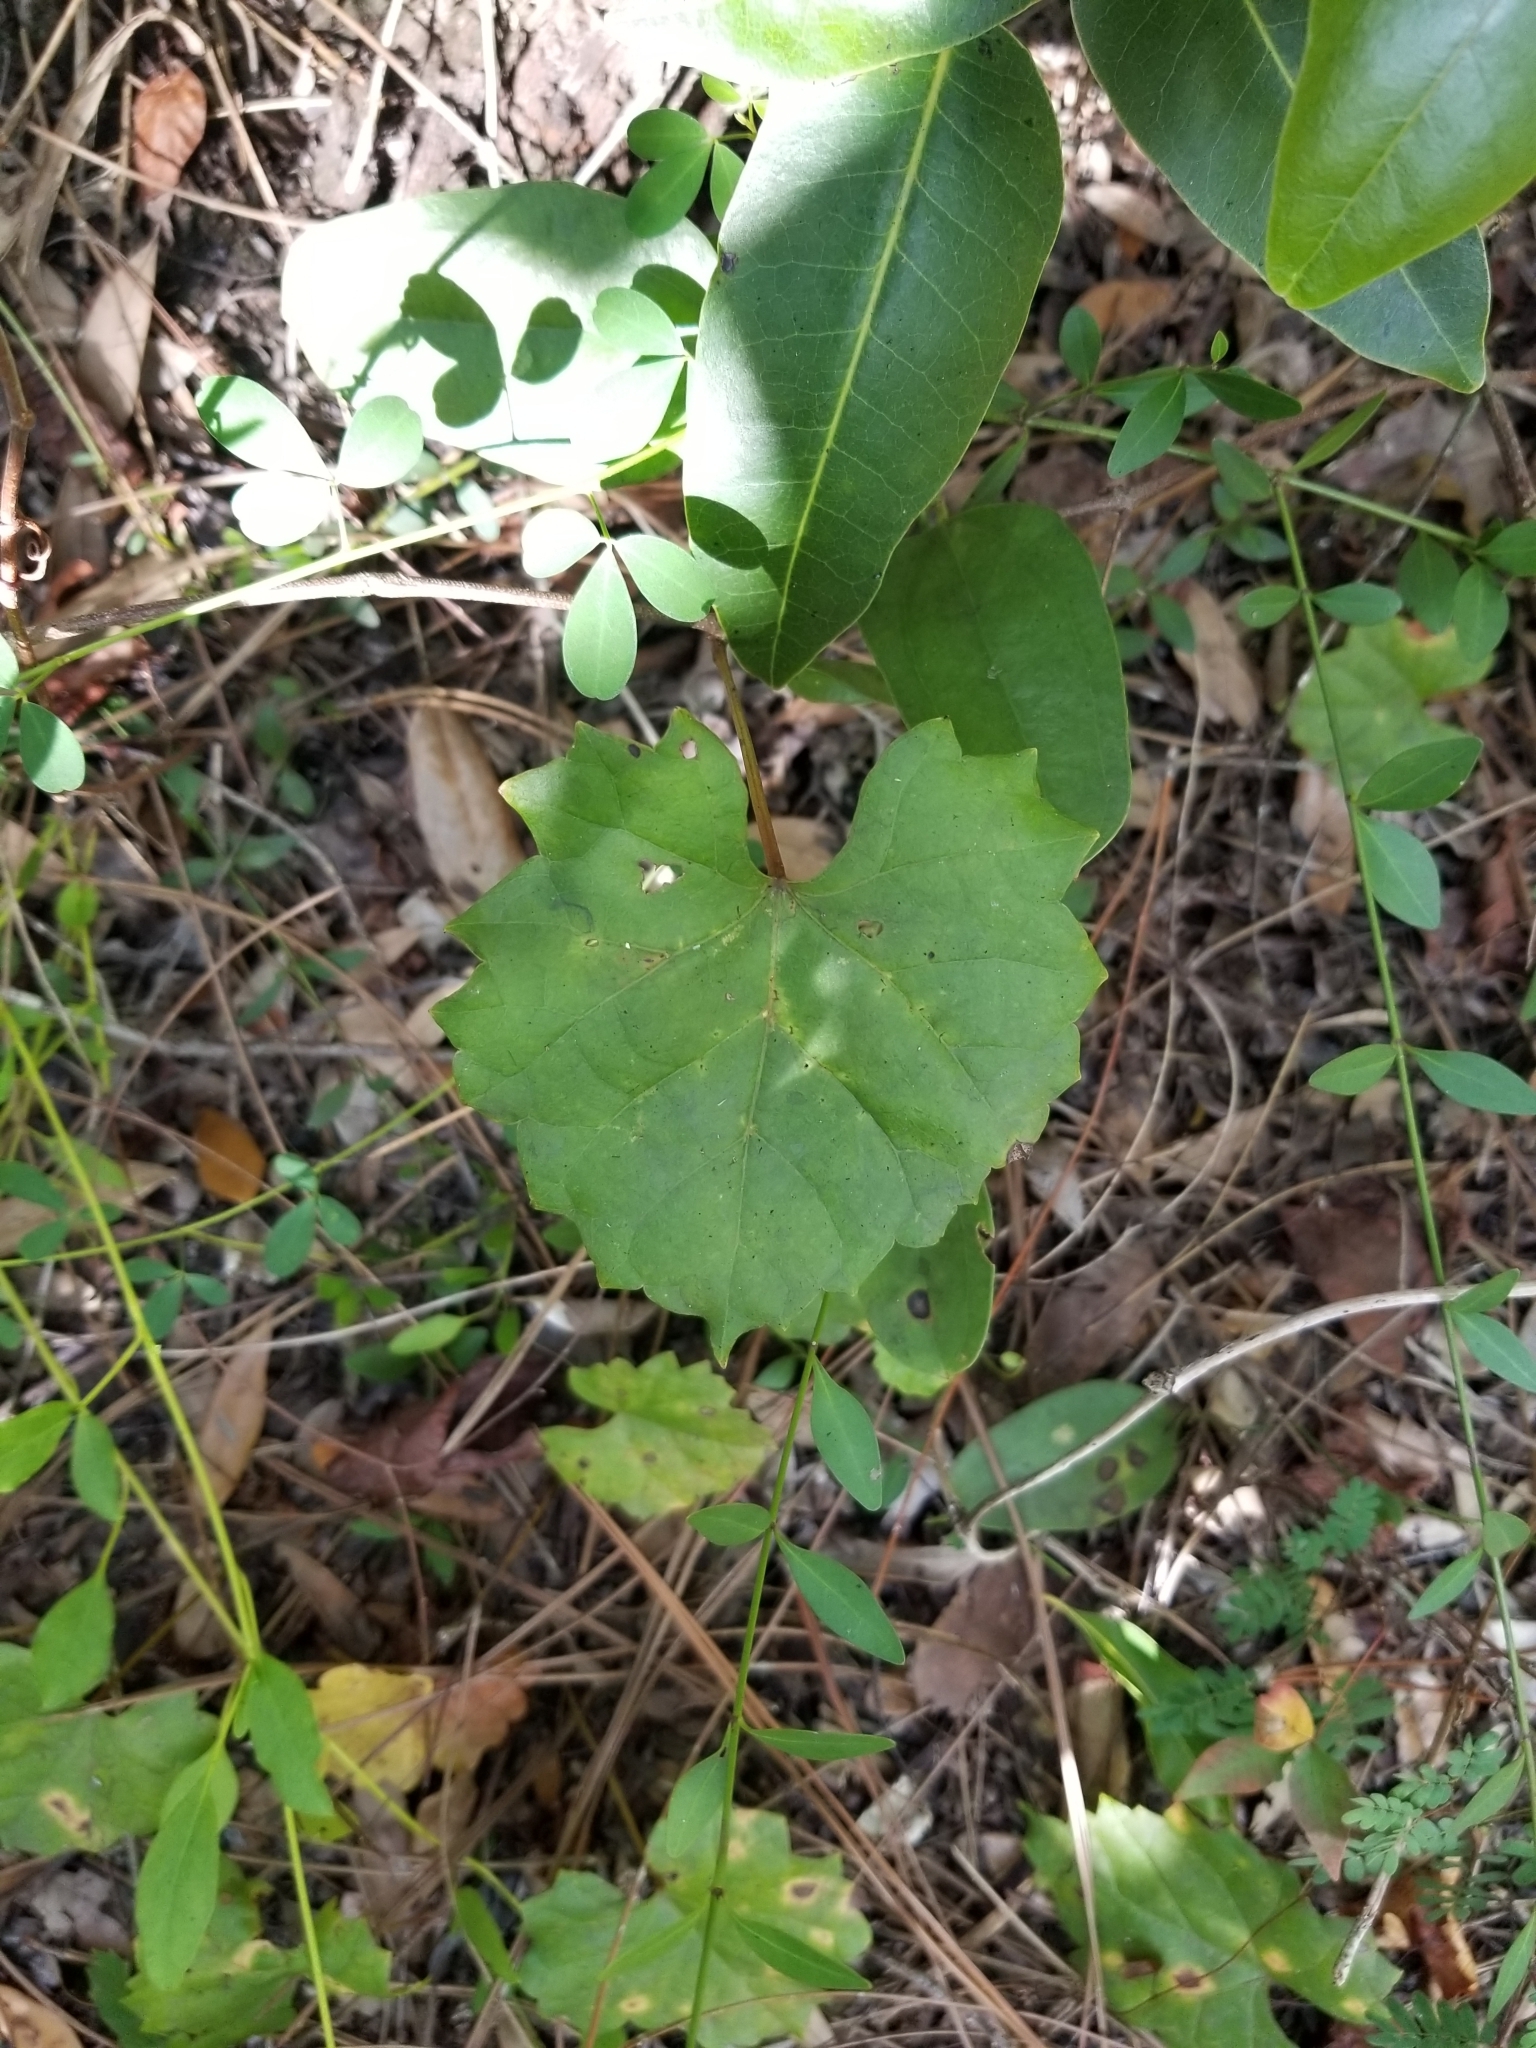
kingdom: Plantae
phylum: Tracheophyta
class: Magnoliopsida
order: Vitales
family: Vitaceae
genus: Vitis
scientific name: Vitis rotundifolia
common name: Muscadine grape
